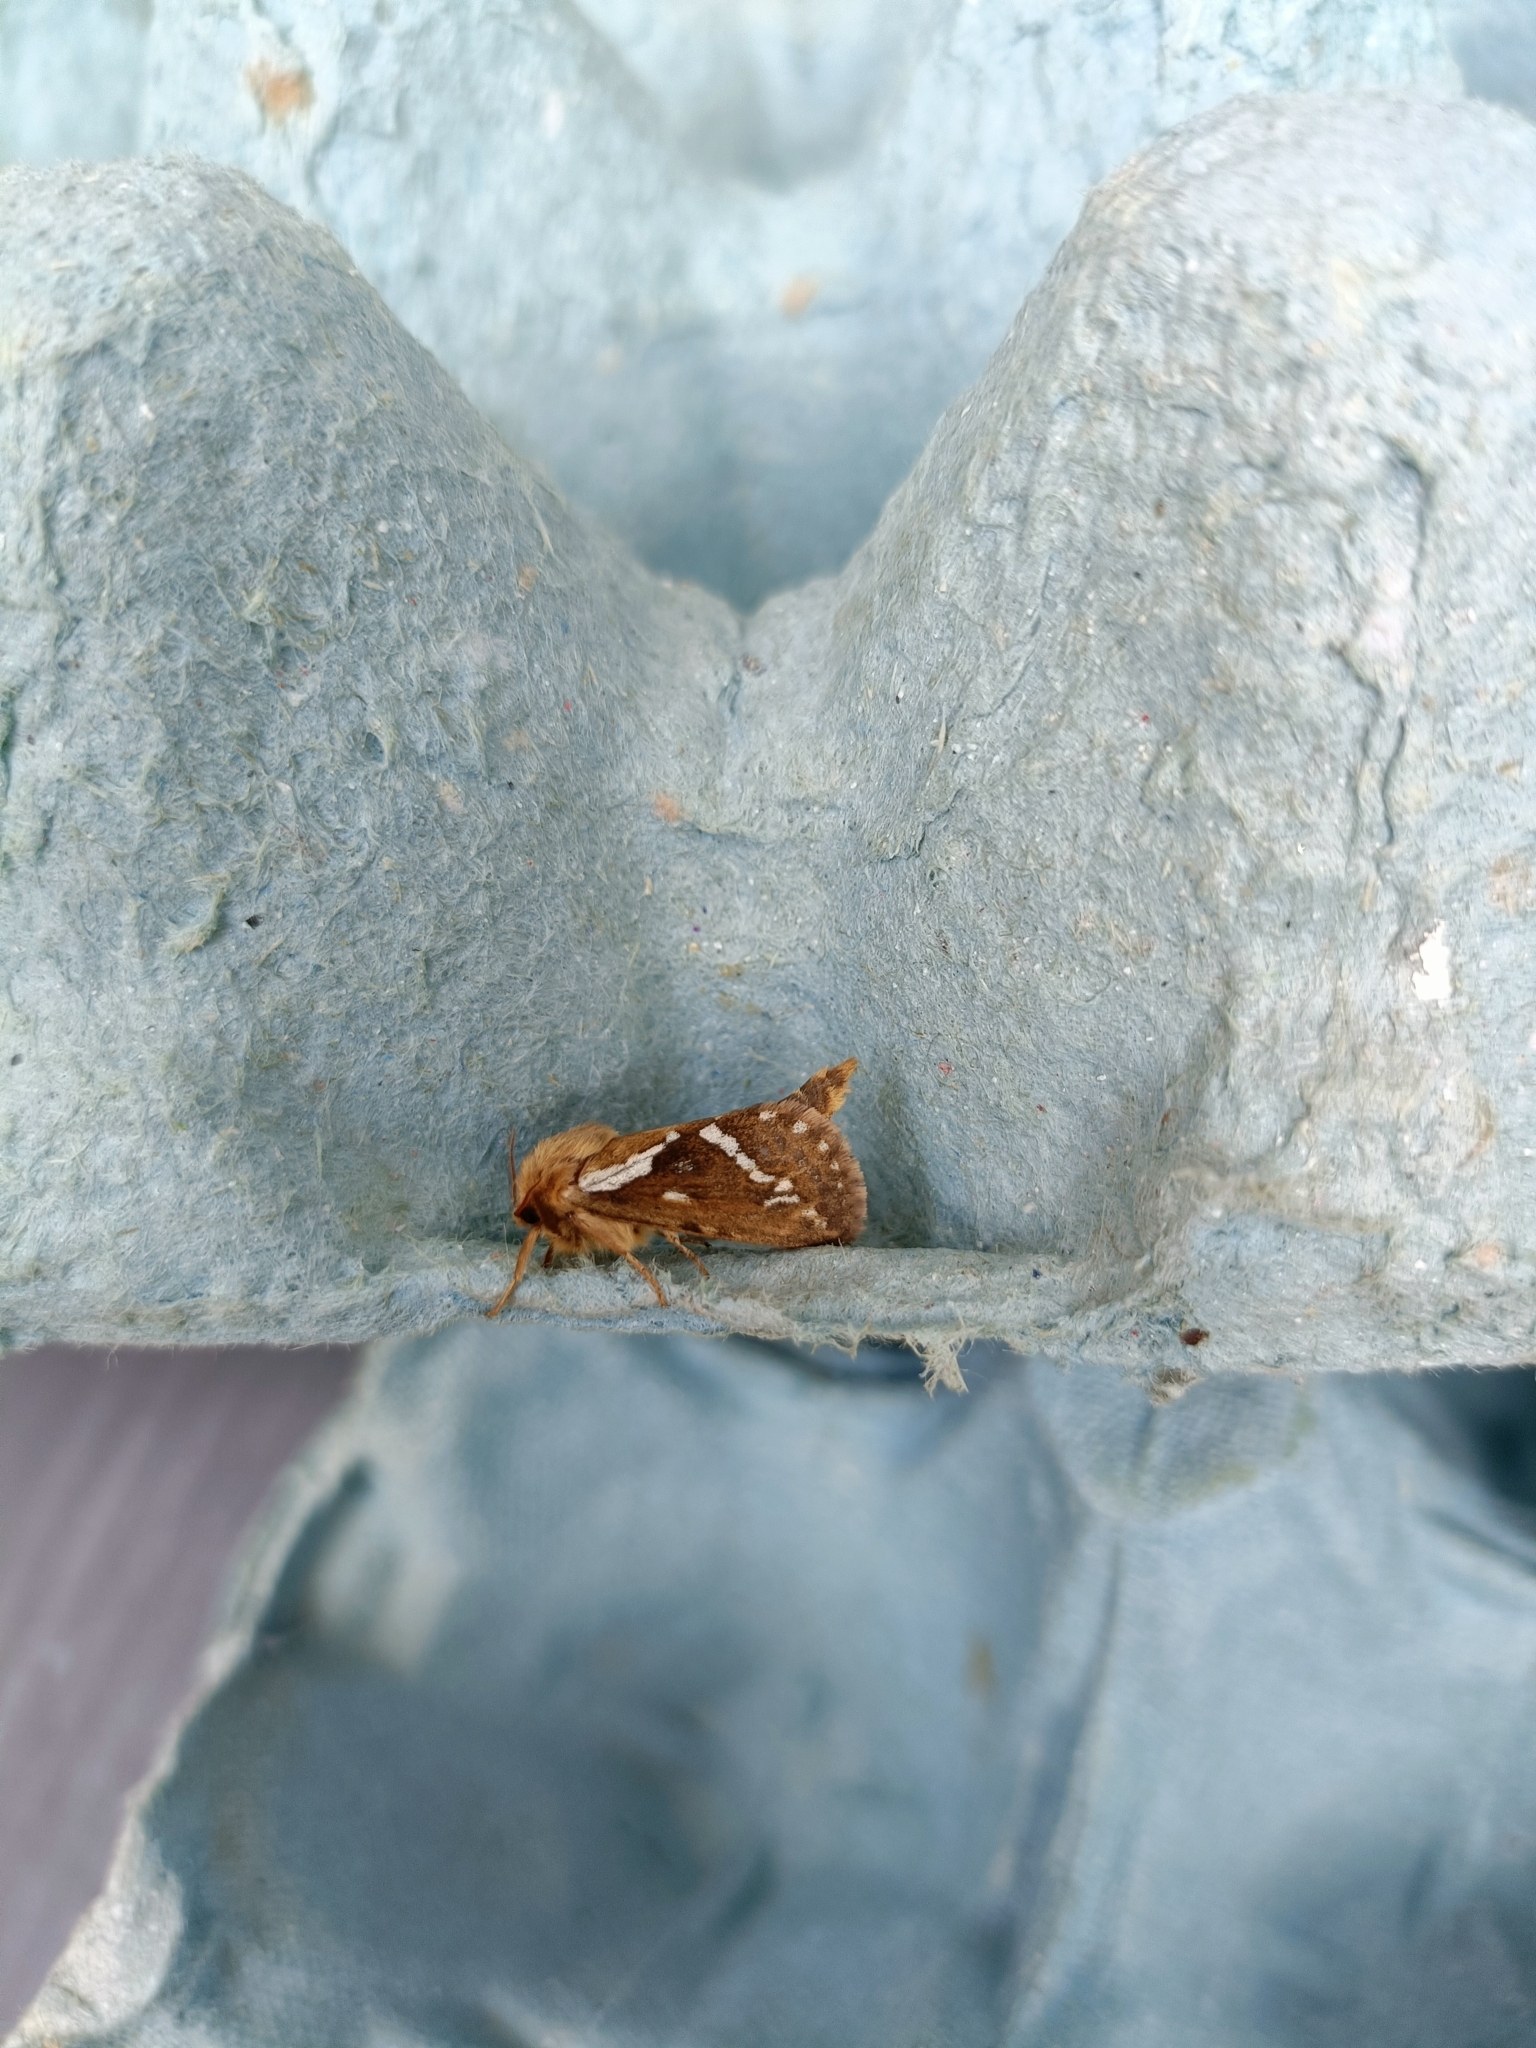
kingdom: Animalia
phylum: Arthropoda
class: Insecta
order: Lepidoptera
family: Hepialidae
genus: Korscheltellus
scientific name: Korscheltellus lupulina
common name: Common swift
